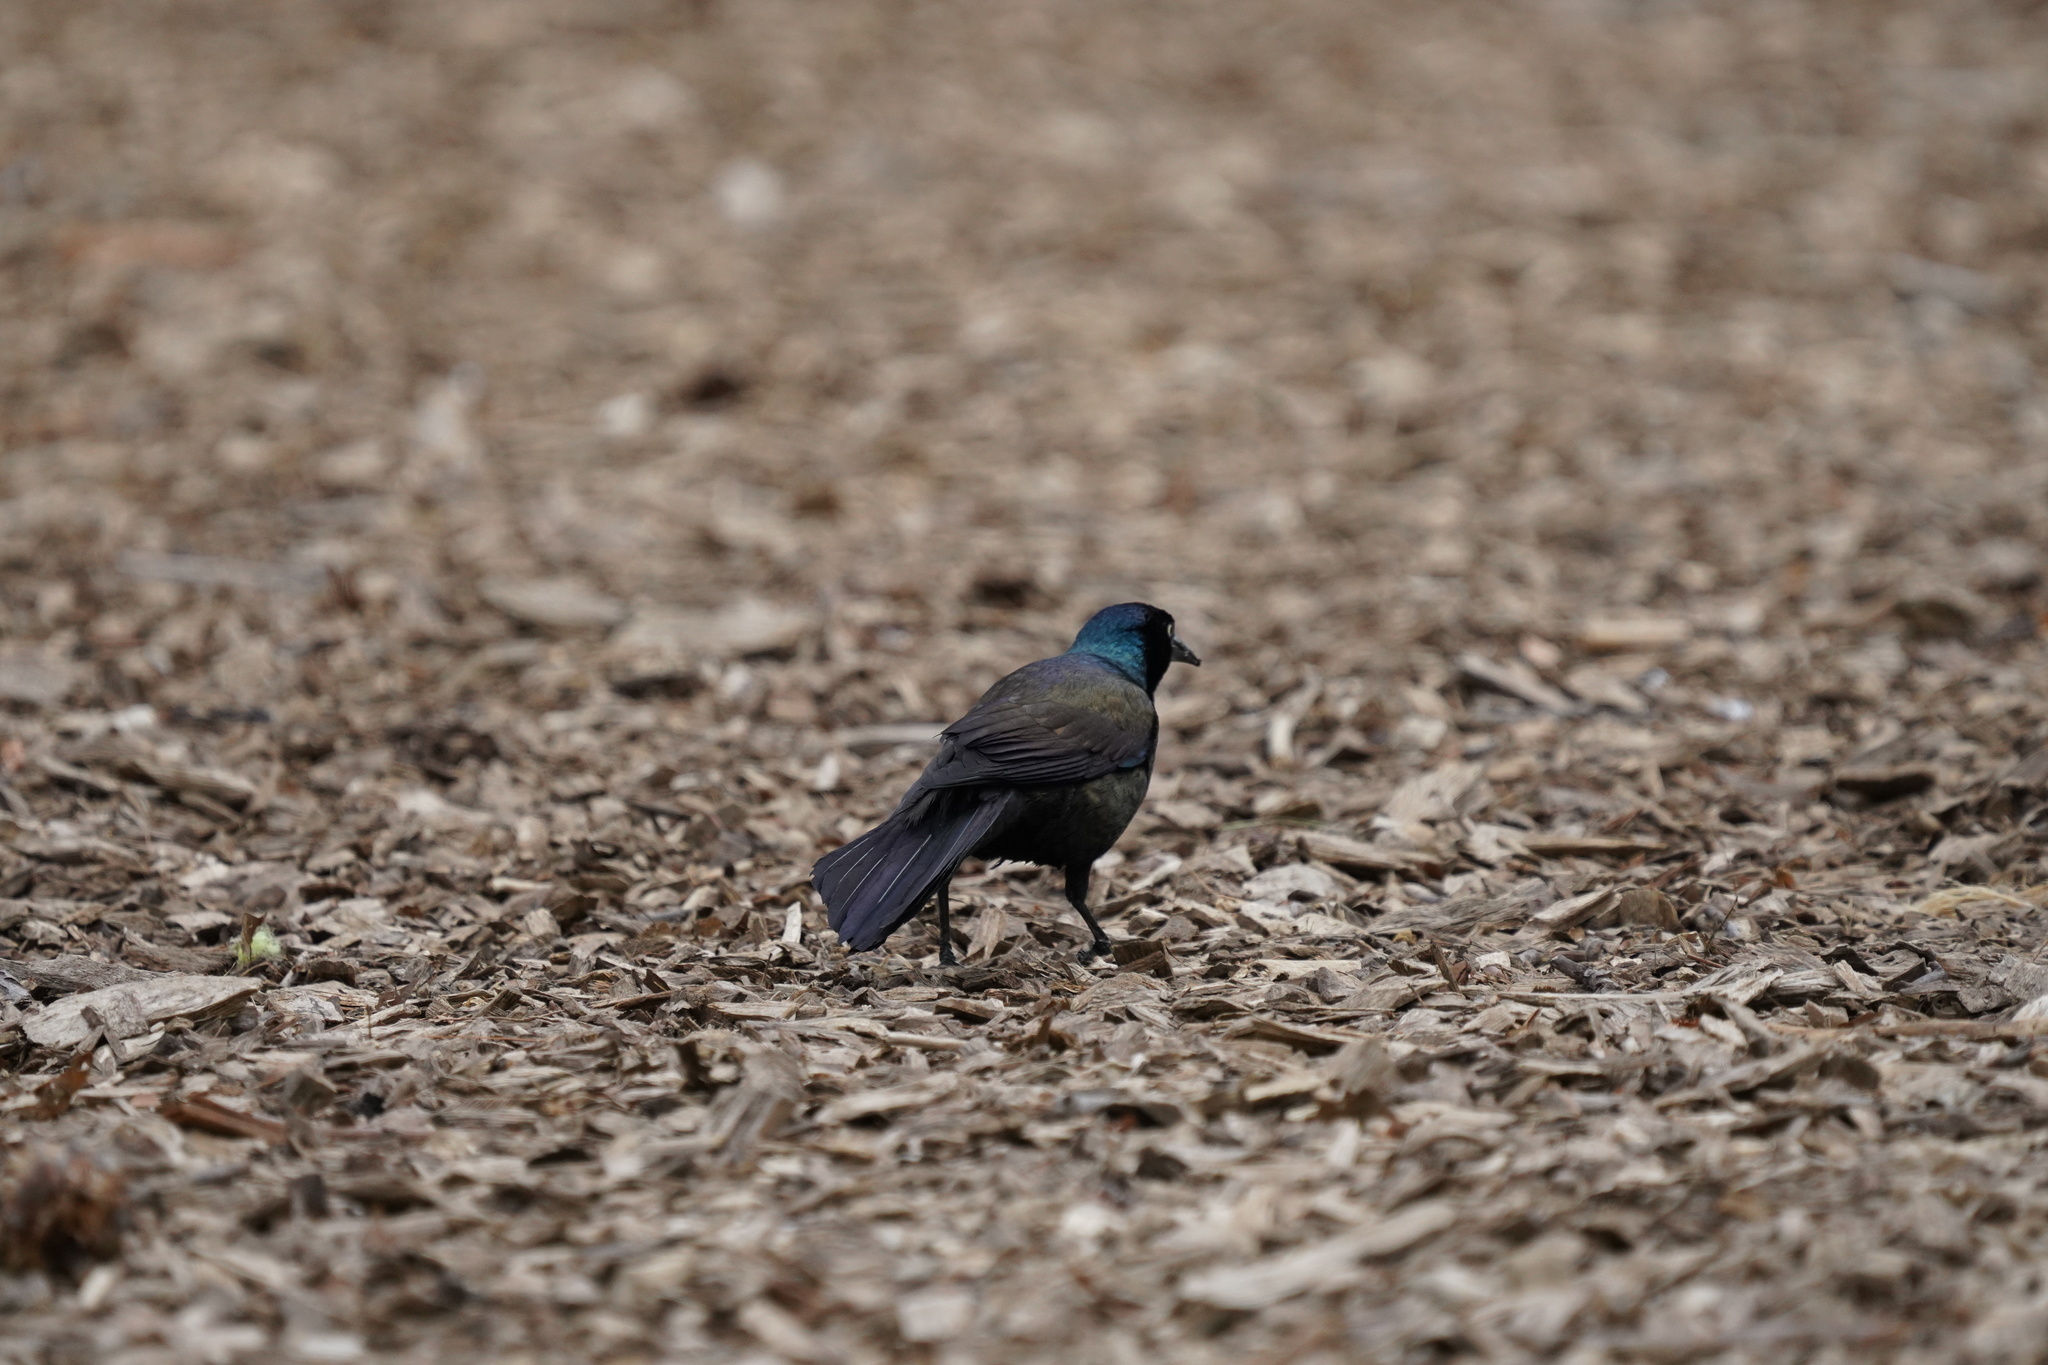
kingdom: Animalia
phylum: Chordata
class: Aves
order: Passeriformes
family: Icteridae
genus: Quiscalus
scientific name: Quiscalus quiscula
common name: Common grackle
